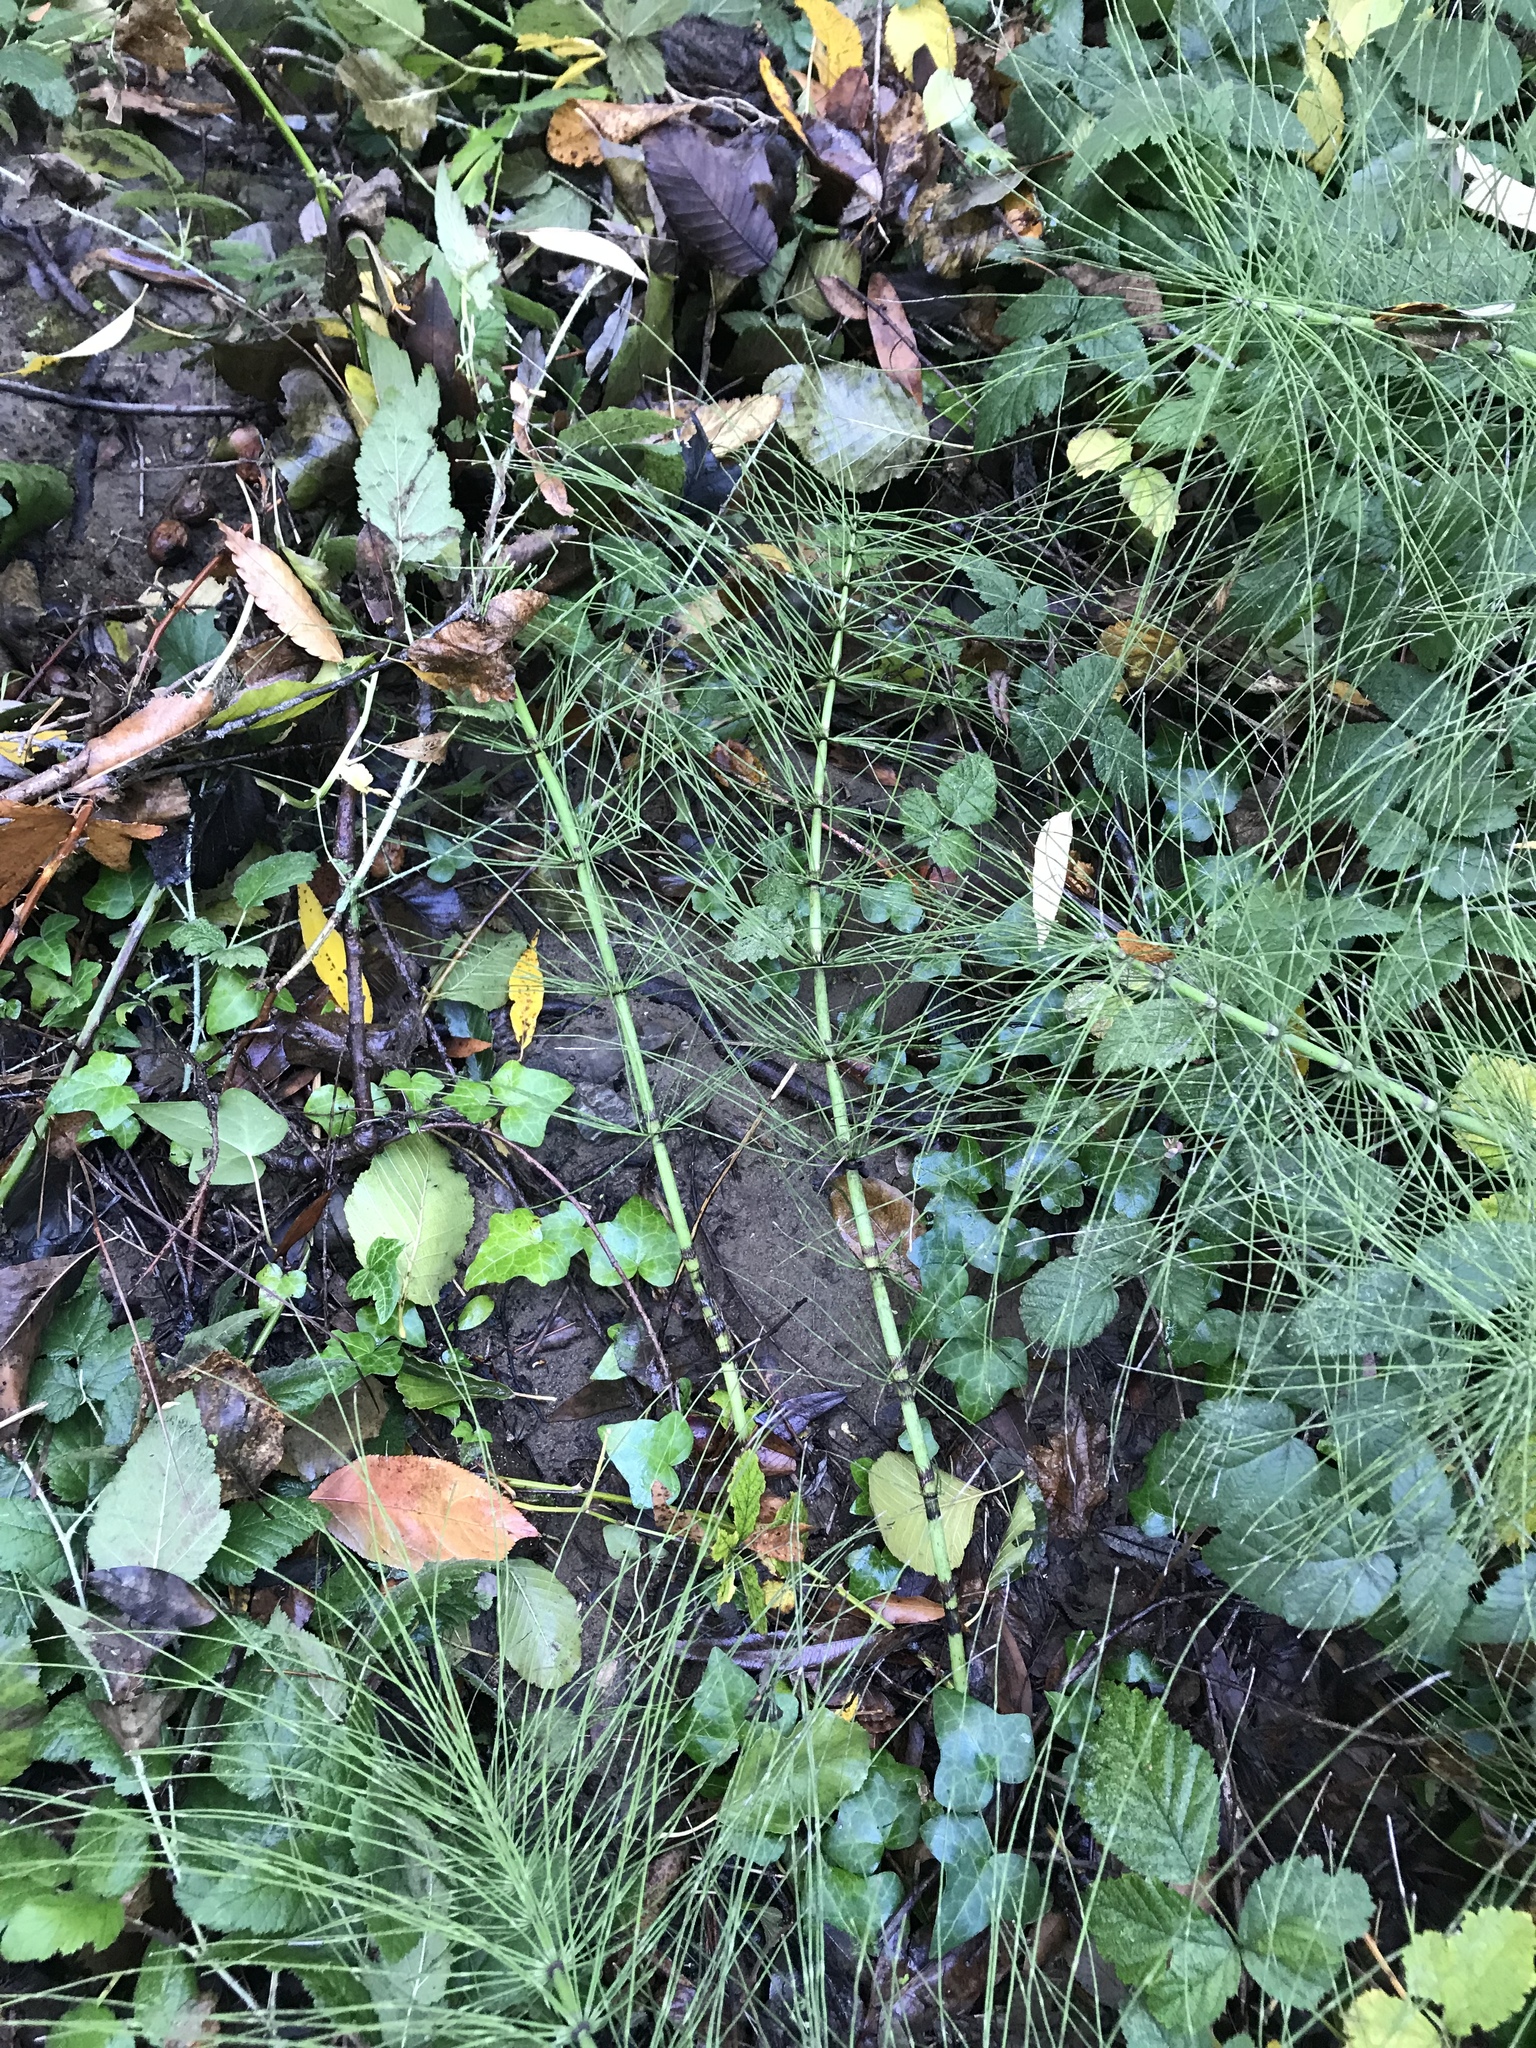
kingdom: Plantae
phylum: Tracheophyta
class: Polypodiopsida
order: Equisetales
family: Equisetaceae
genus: Equisetum
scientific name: Equisetum telmateia
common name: Great horsetail
